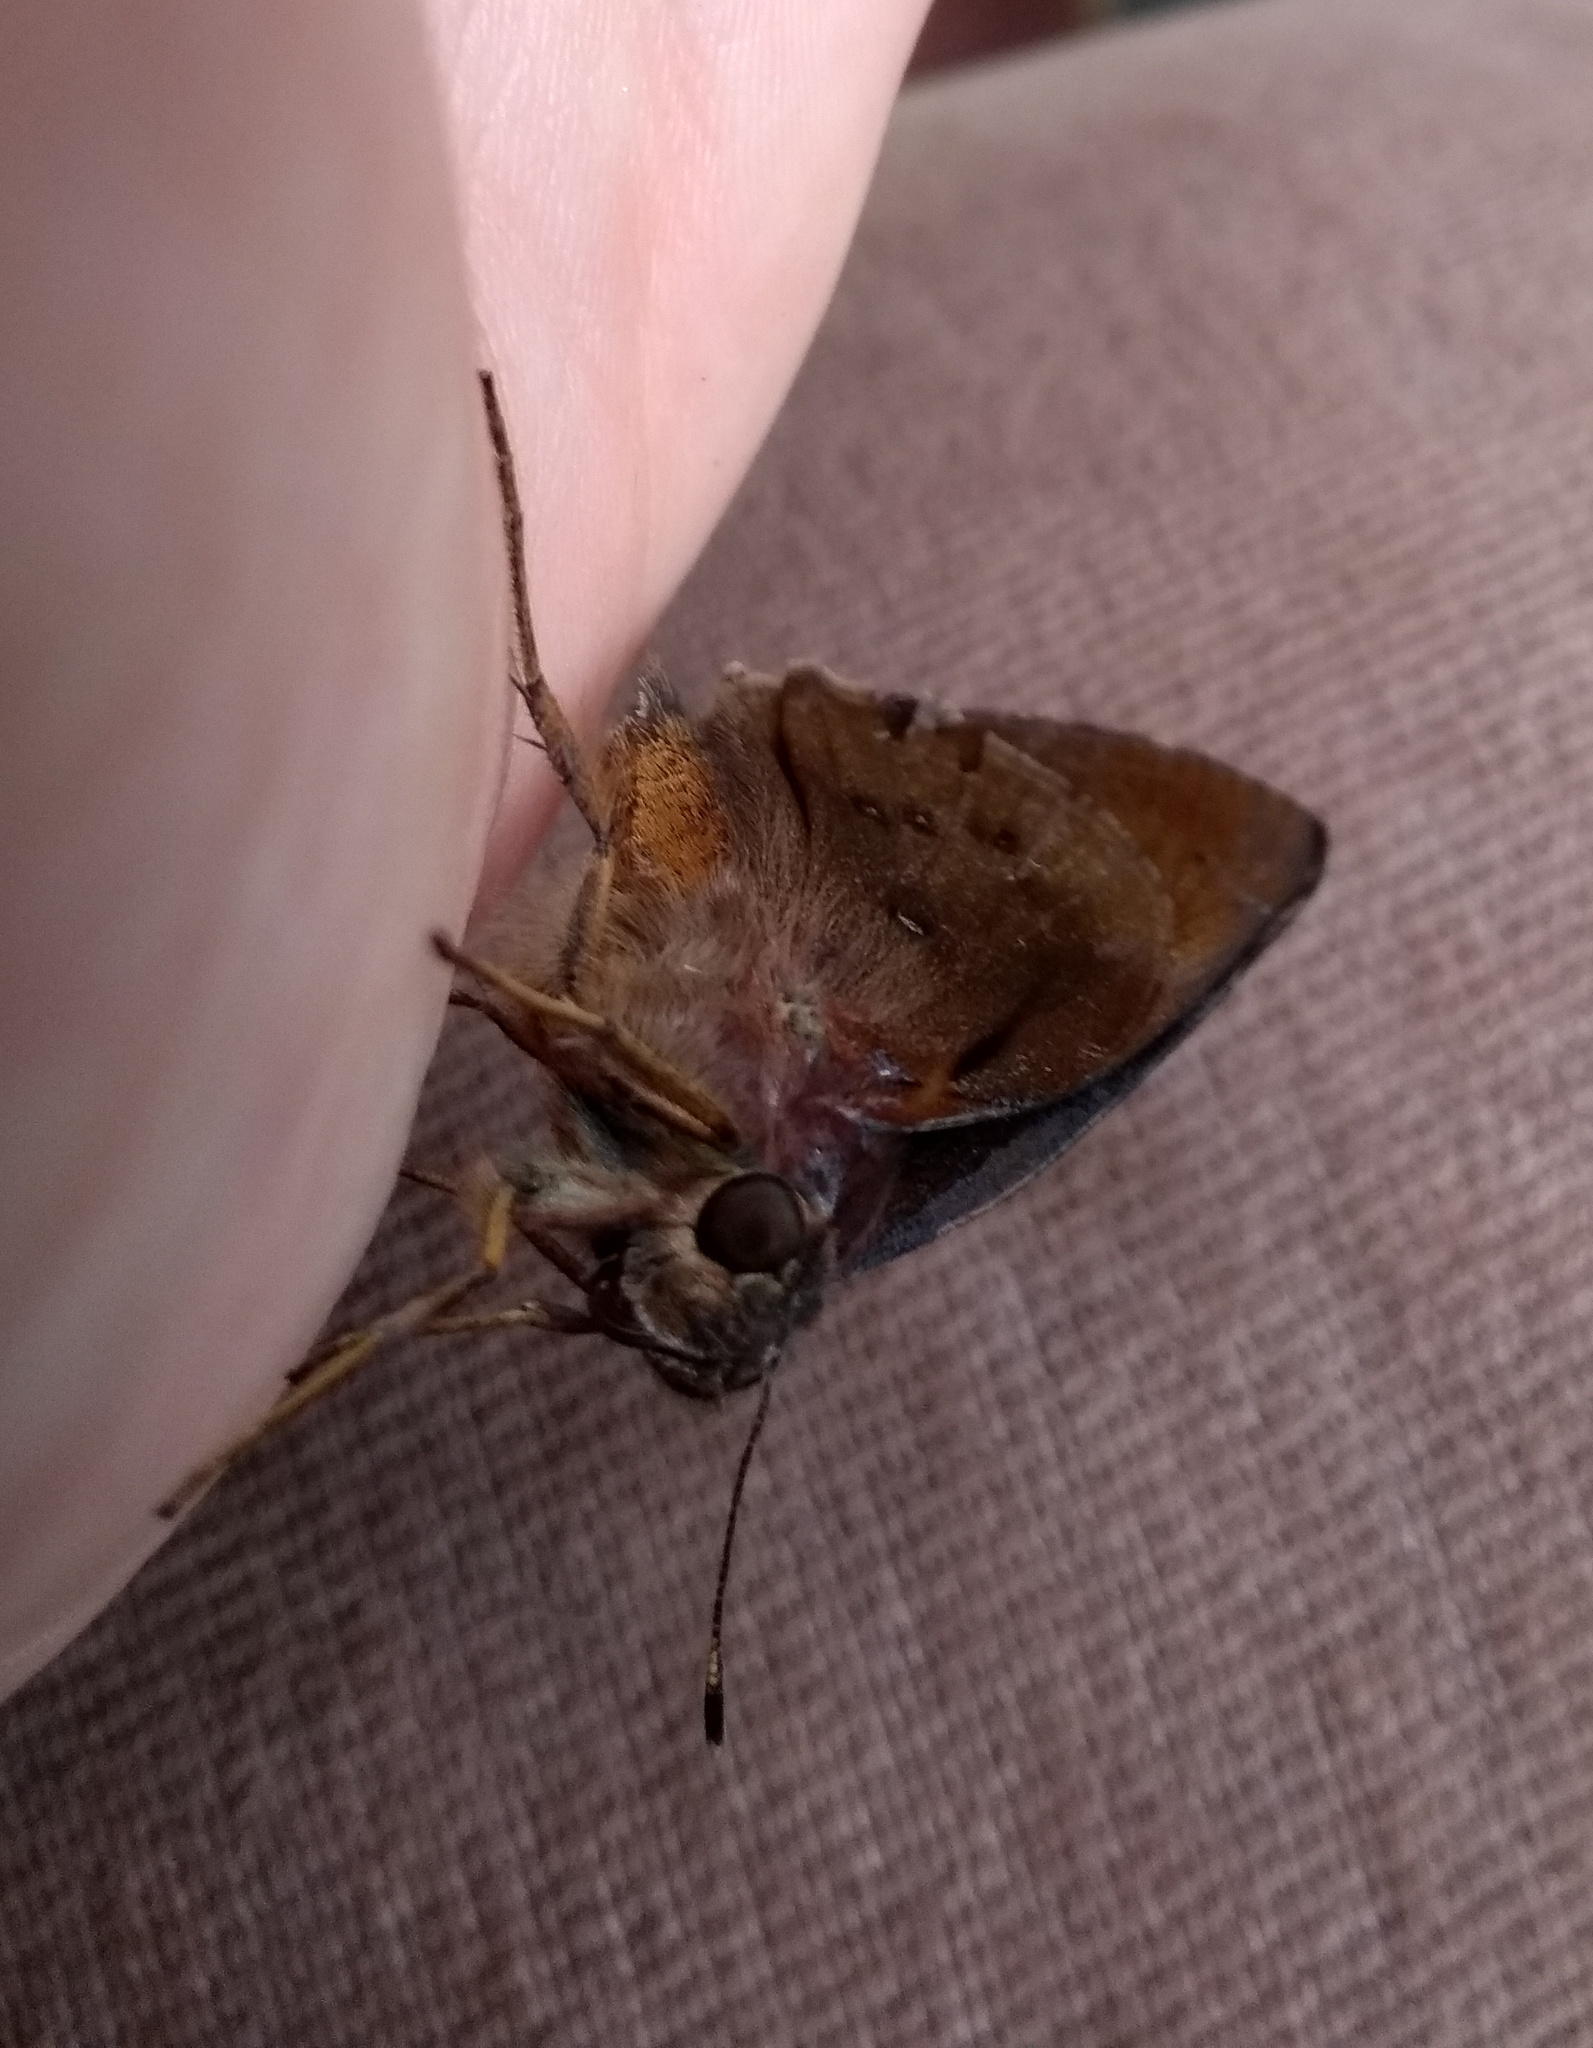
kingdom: Animalia
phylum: Arthropoda
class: Insecta
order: Lepidoptera
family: Hesperiidae
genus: Tisias
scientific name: Tisias quadrata
